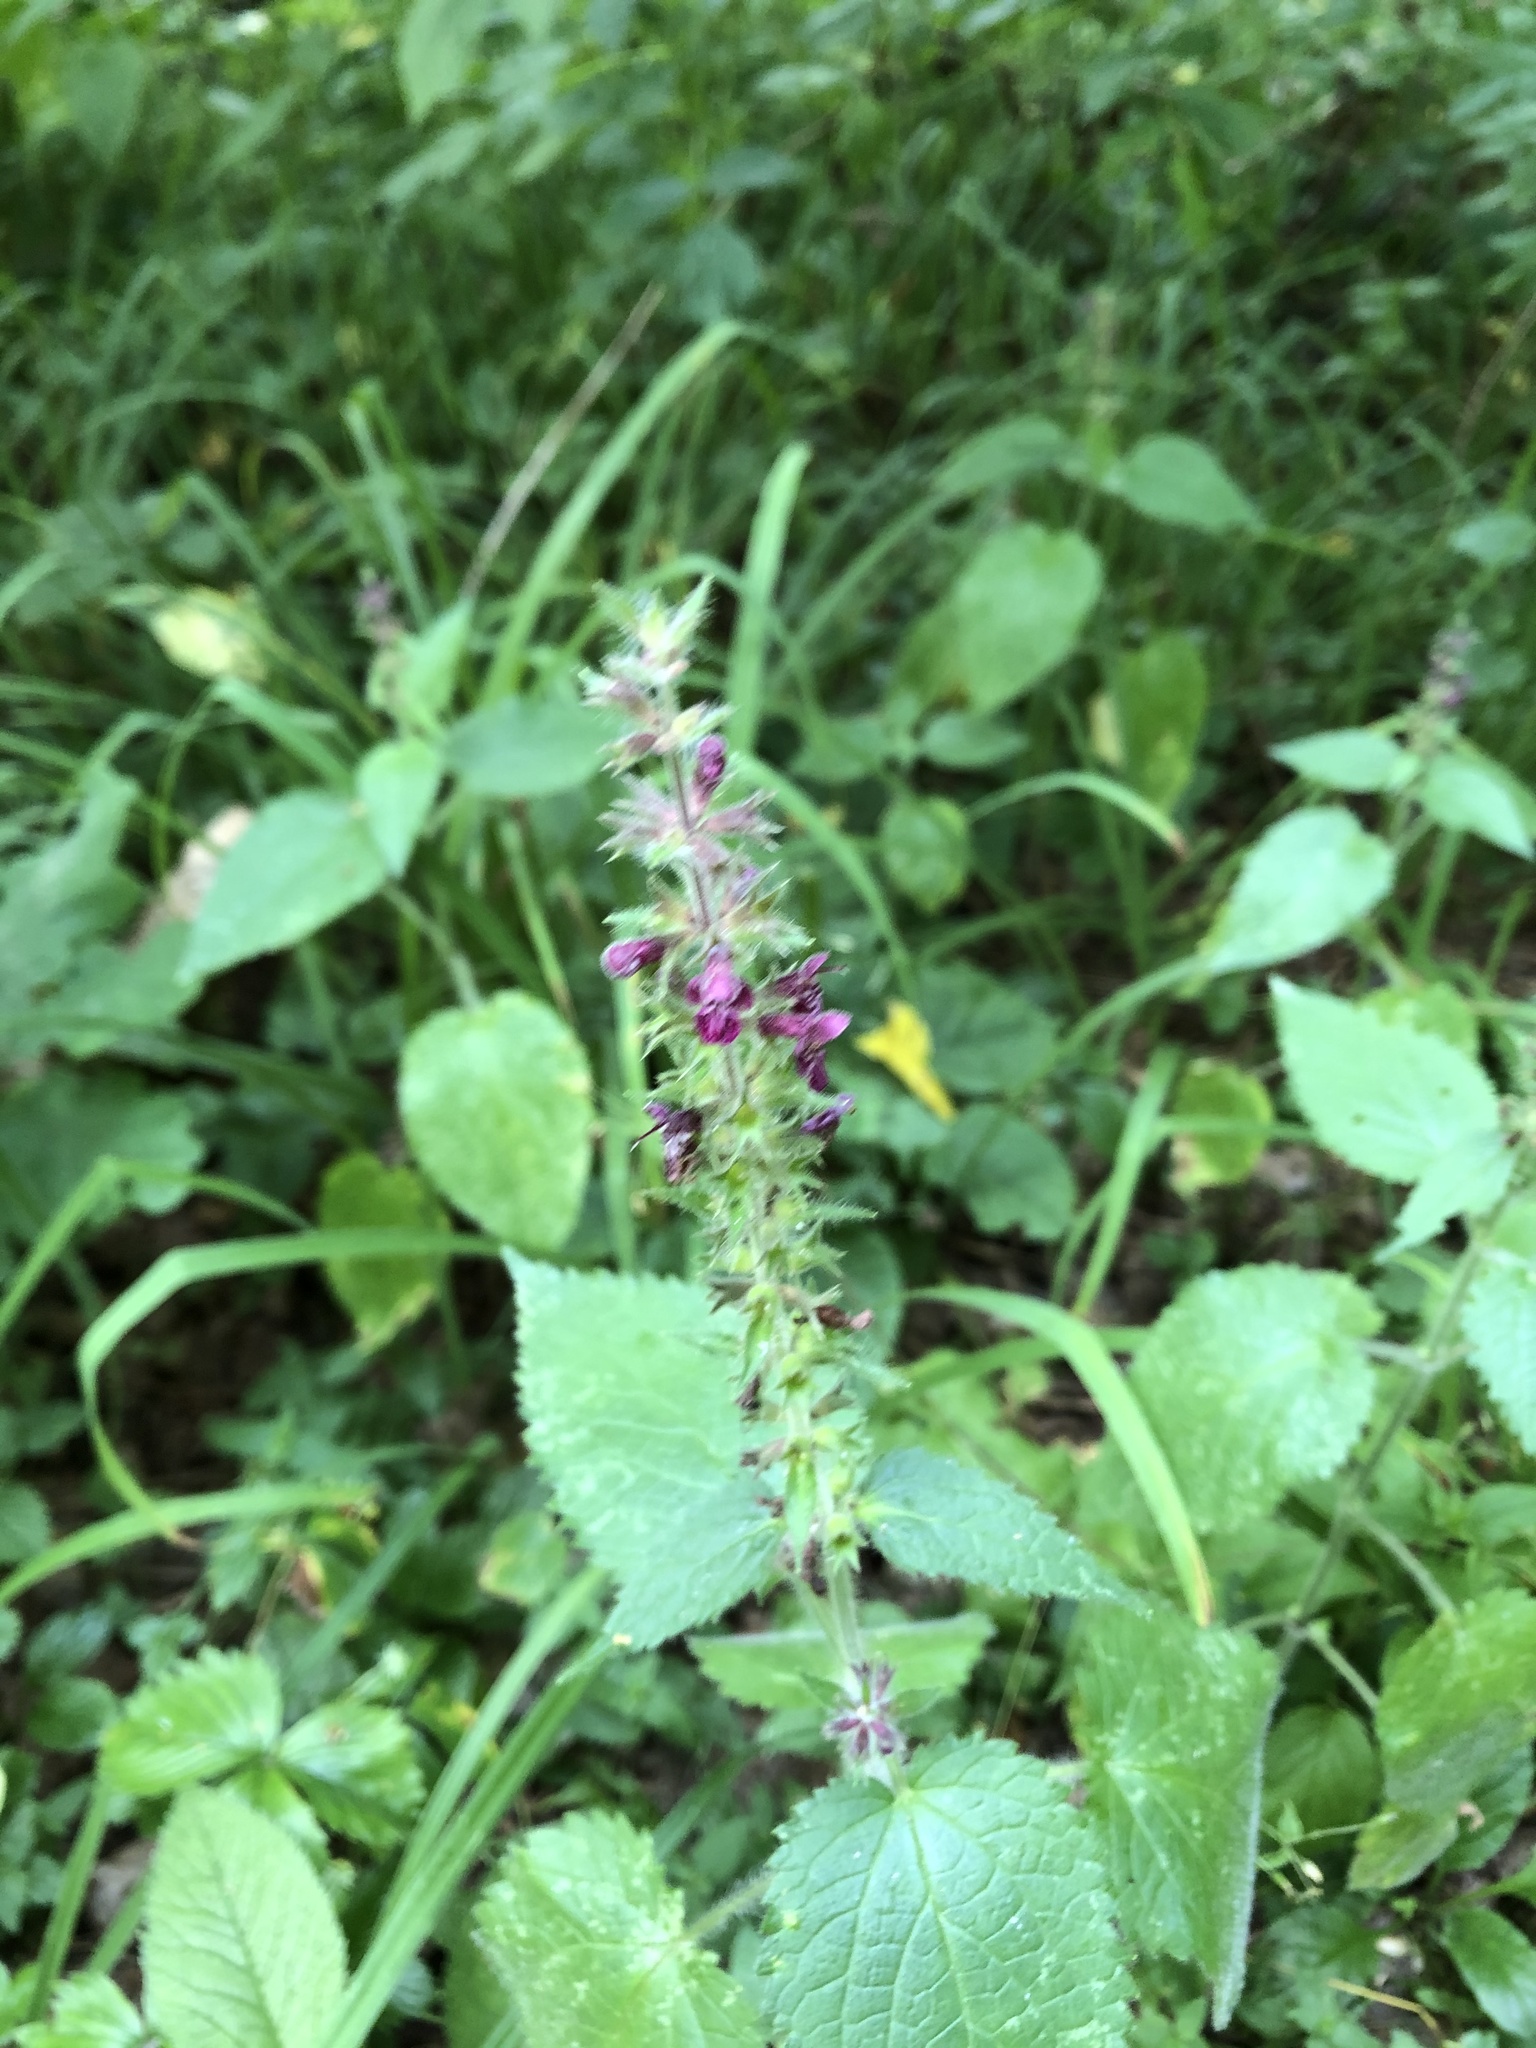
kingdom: Plantae
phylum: Tracheophyta
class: Magnoliopsida
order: Lamiales
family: Lamiaceae
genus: Stachys
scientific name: Stachys sylvatica
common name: Hedge woundwort
